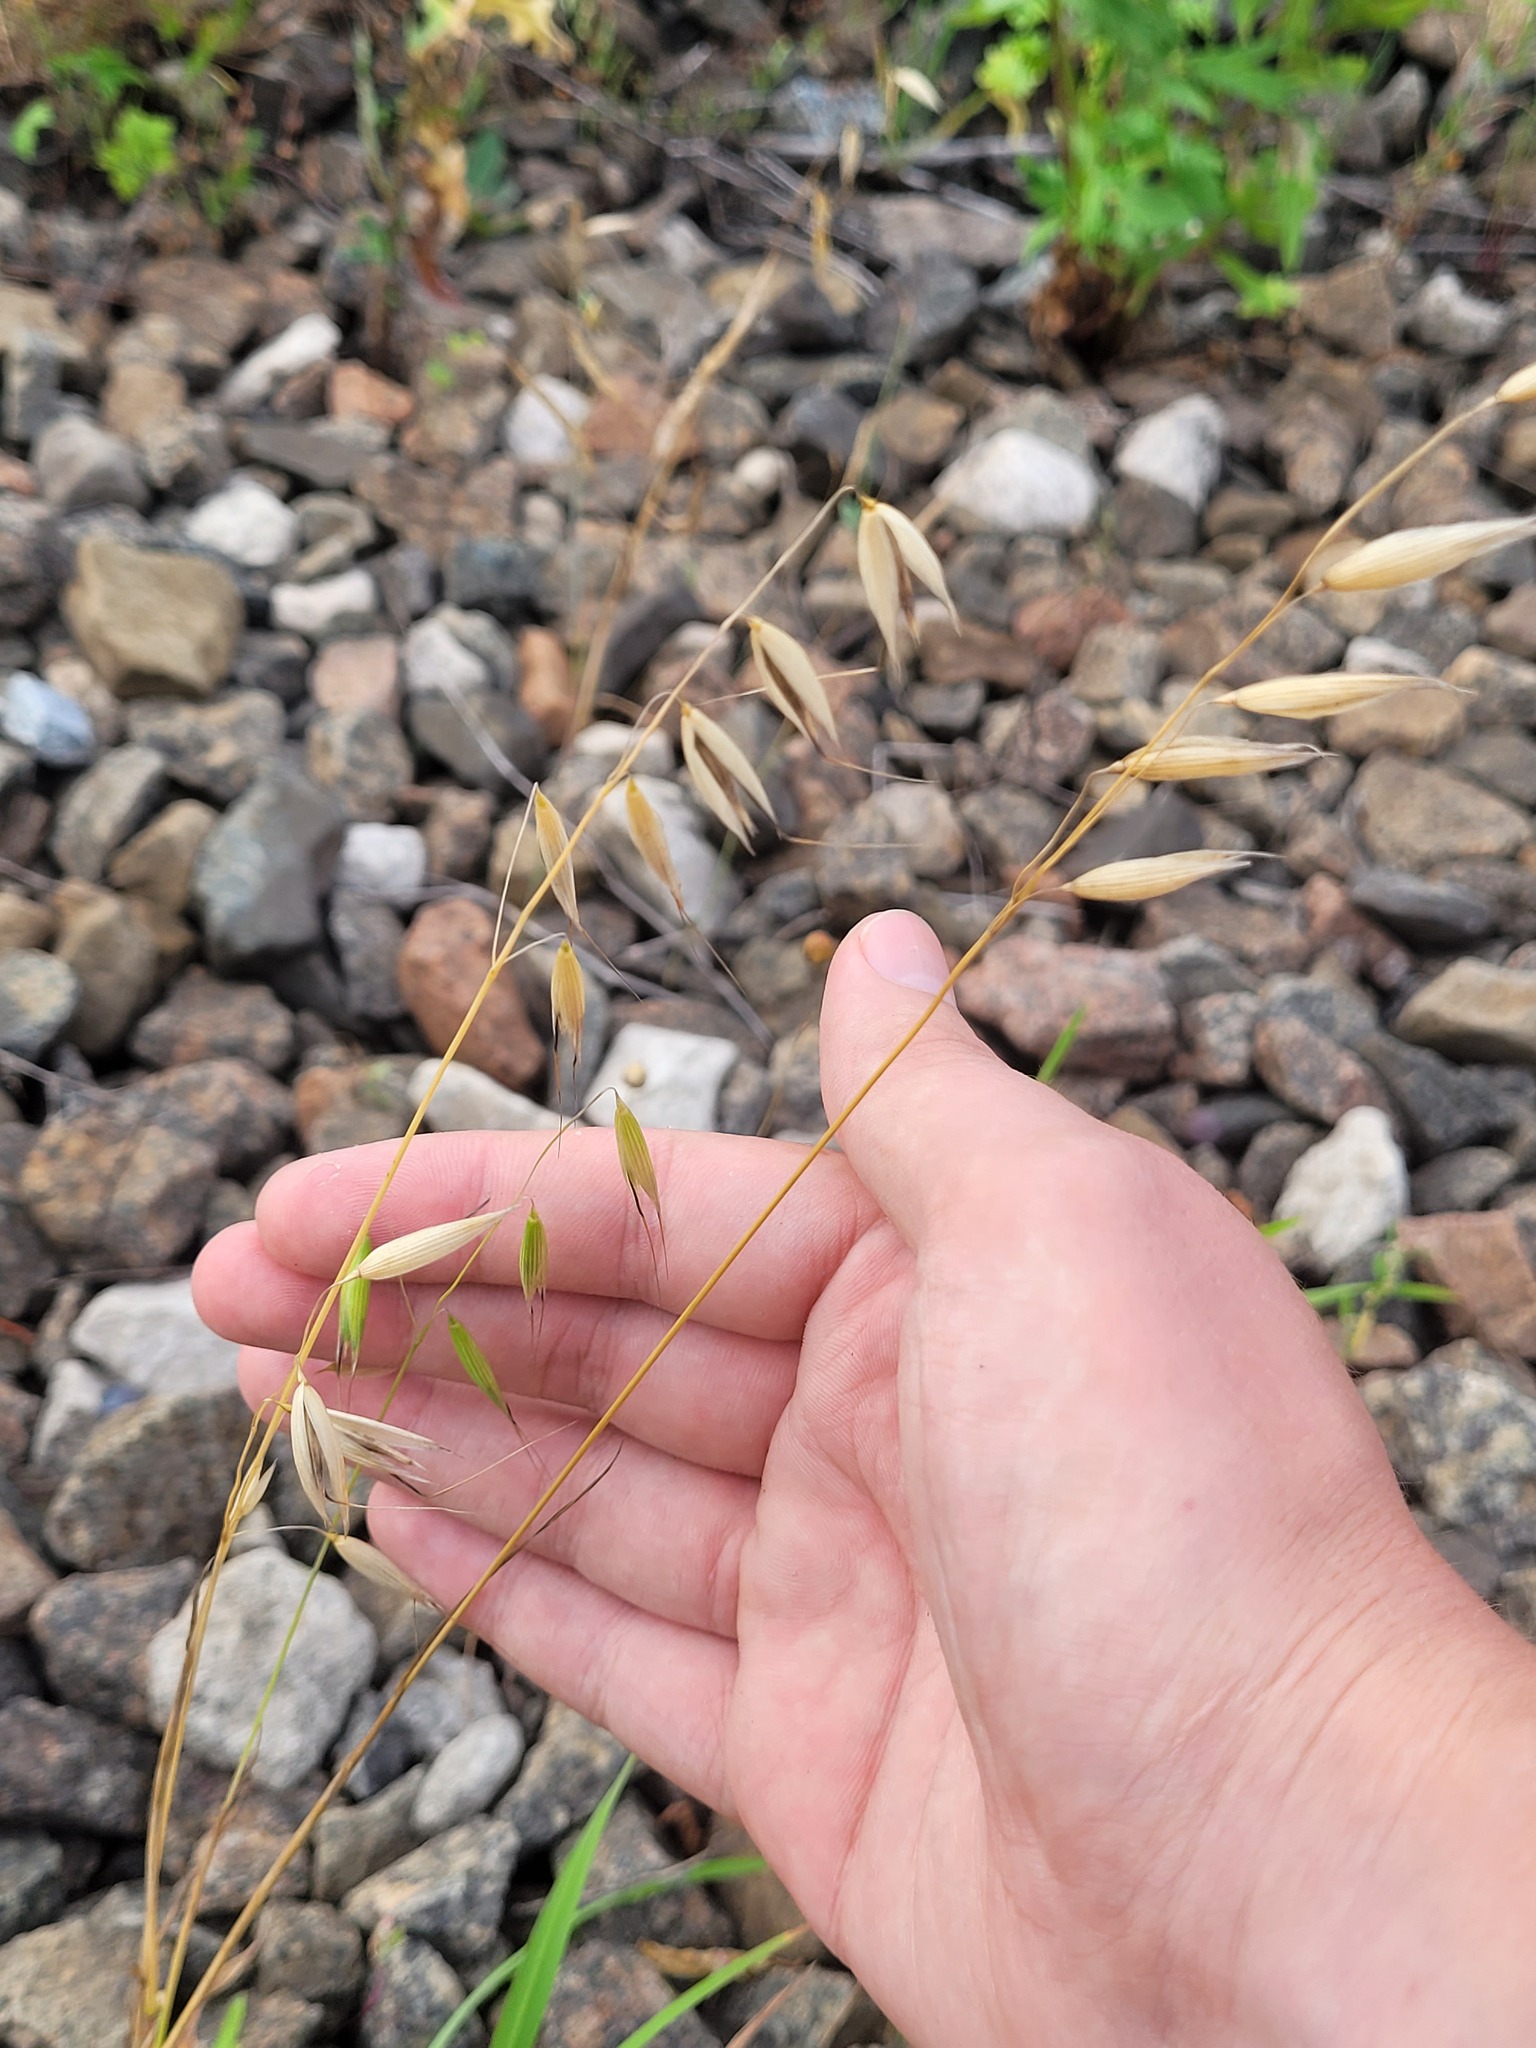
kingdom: Plantae
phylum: Tracheophyta
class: Liliopsida
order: Poales
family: Poaceae
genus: Avena
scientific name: Avena fatua
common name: Wild oat
